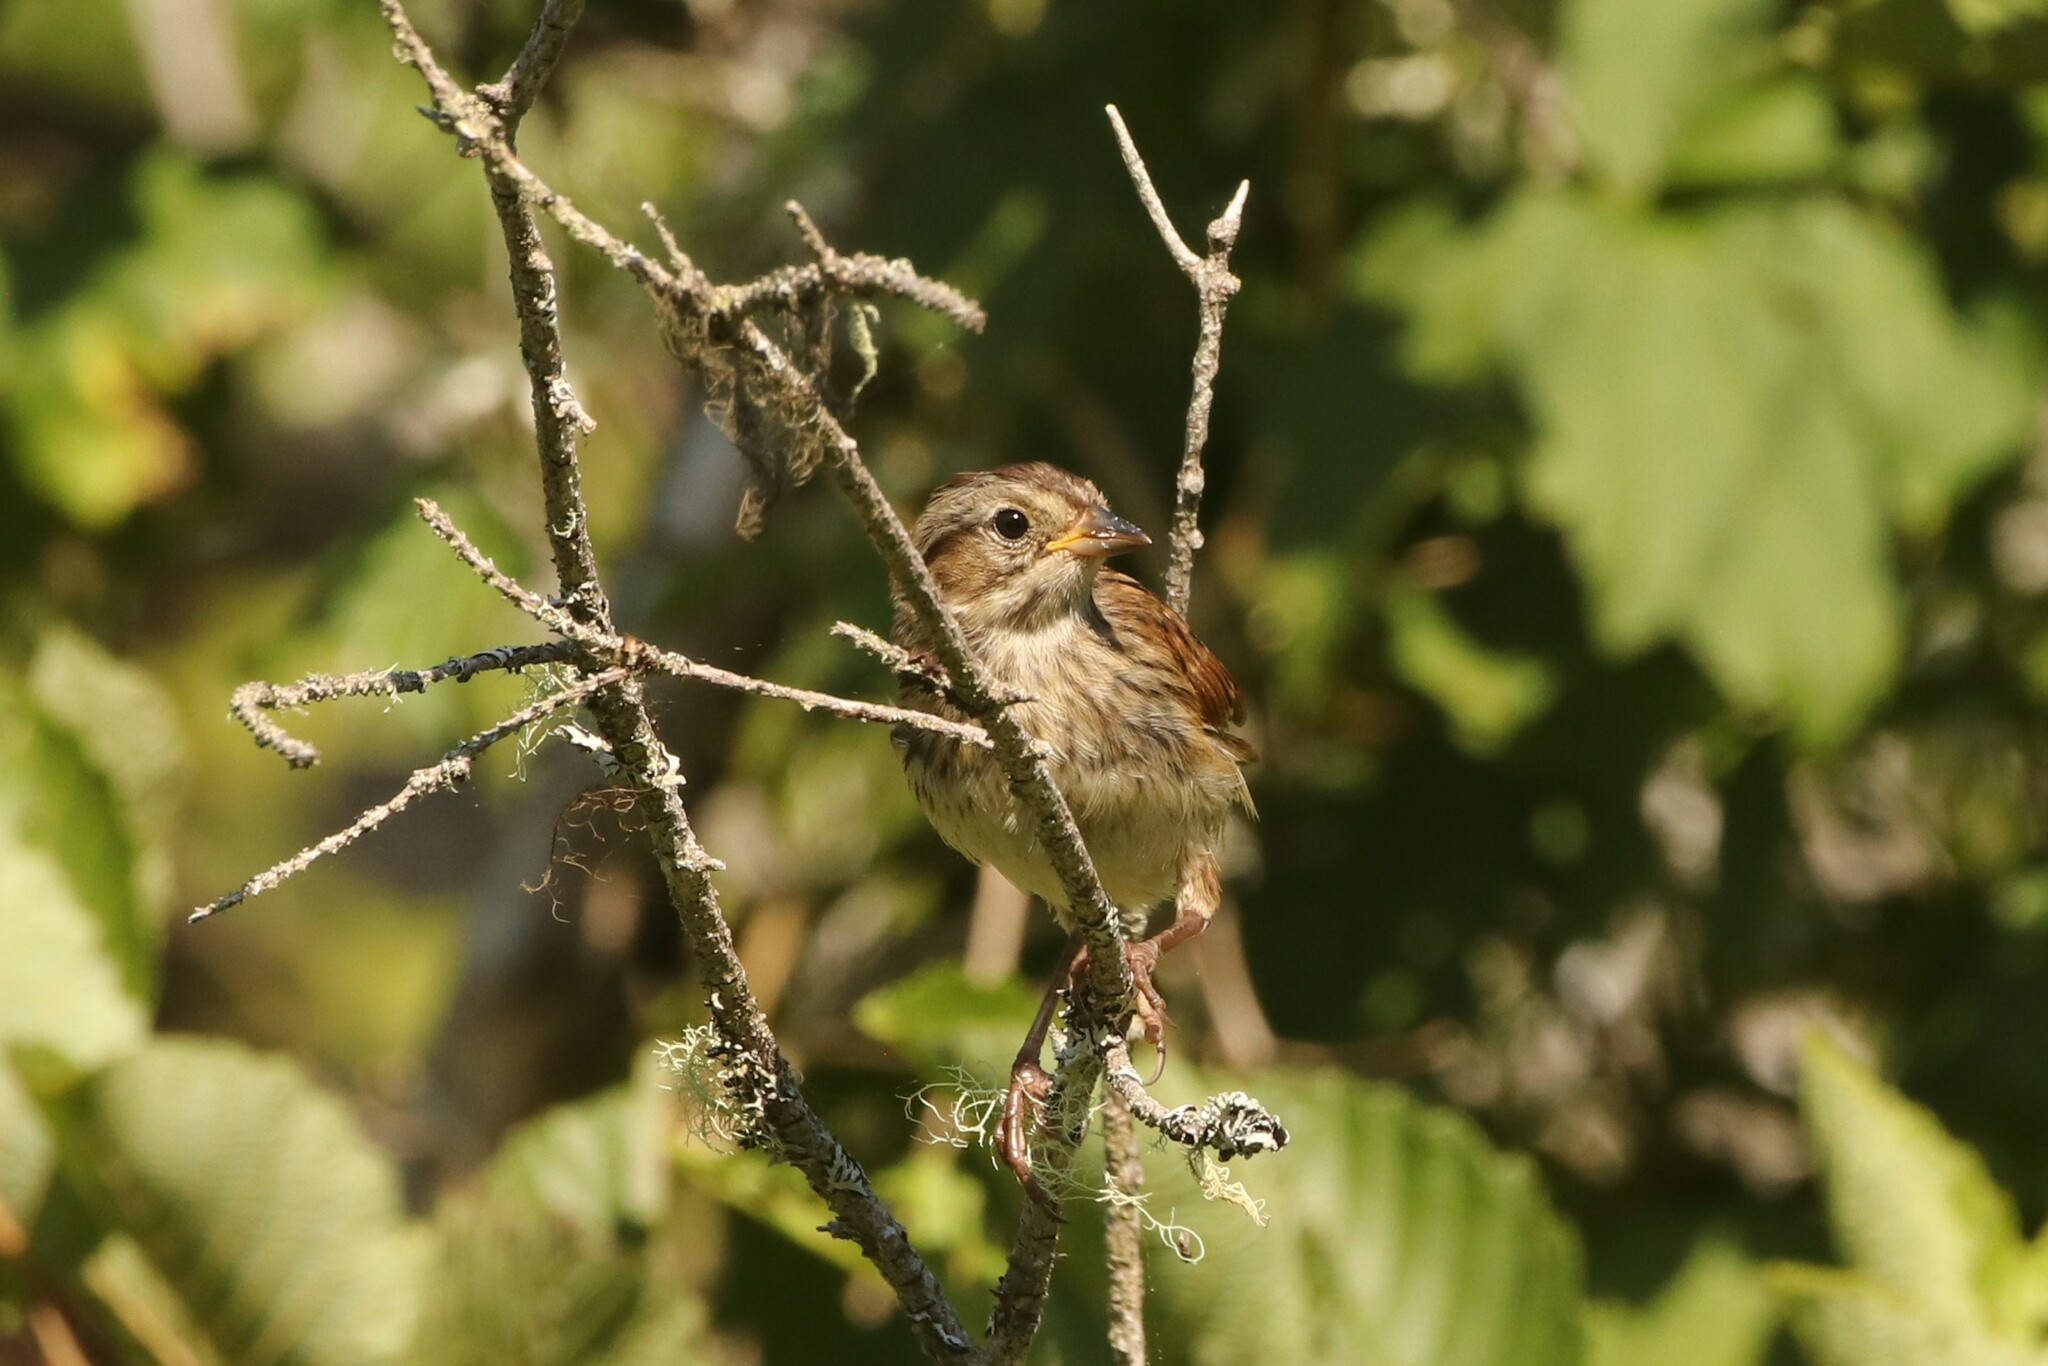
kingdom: Animalia
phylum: Chordata
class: Aves
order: Passeriformes
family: Passerellidae
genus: Melospiza
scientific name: Melospiza georgiana
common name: Swamp sparrow
